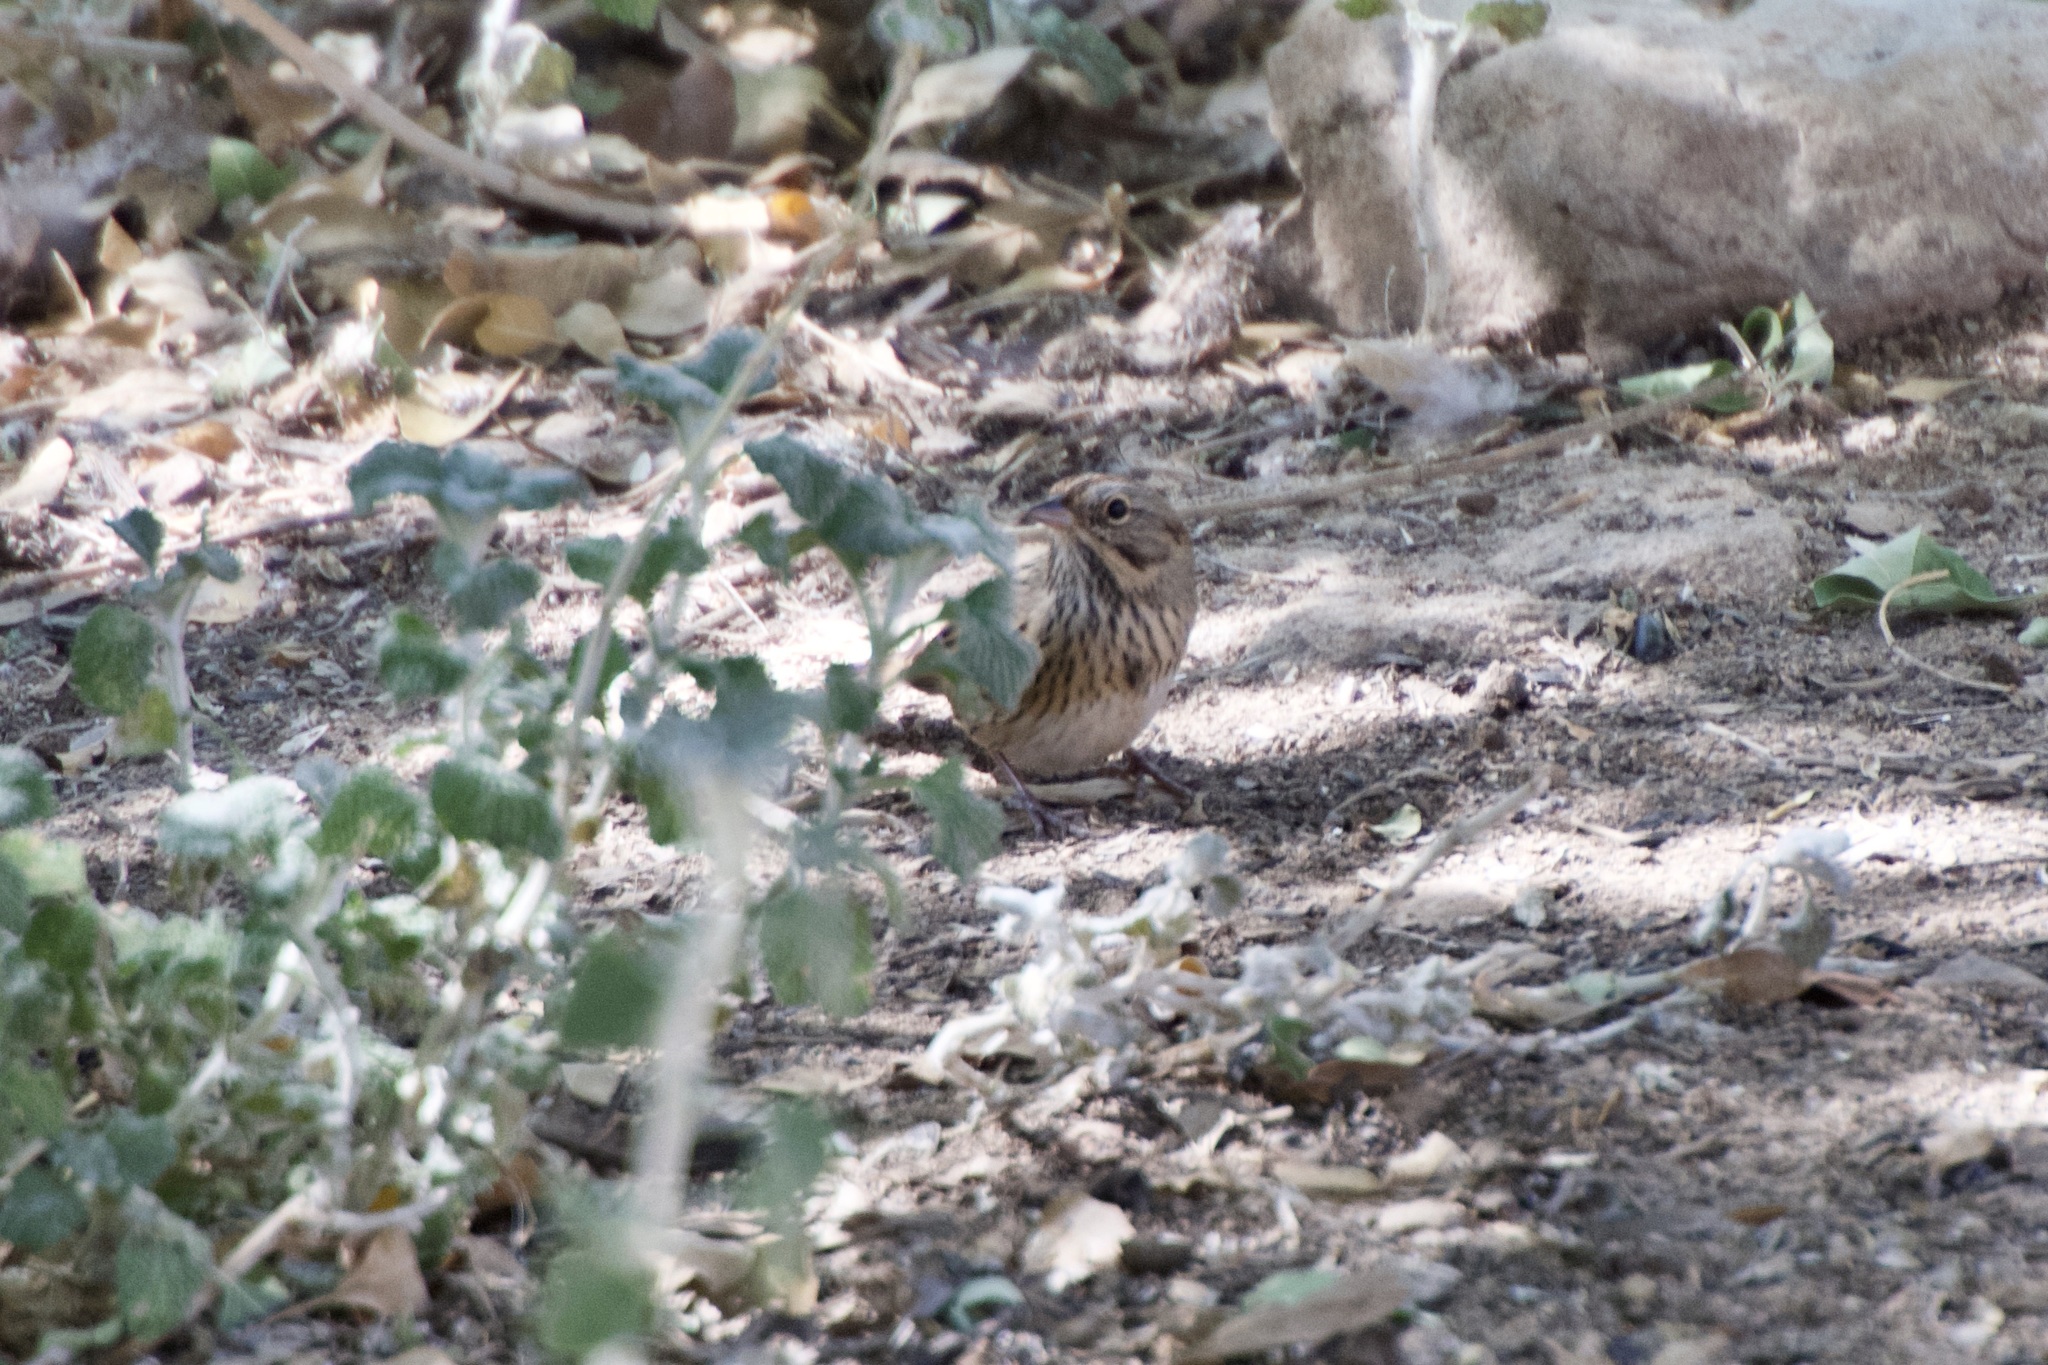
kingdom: Animalia
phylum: Chordata
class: Aves
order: Passeriformes
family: Passerellidae
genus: Melospiza
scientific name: Melospiza lincolnii
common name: Lincoln's sparrow
